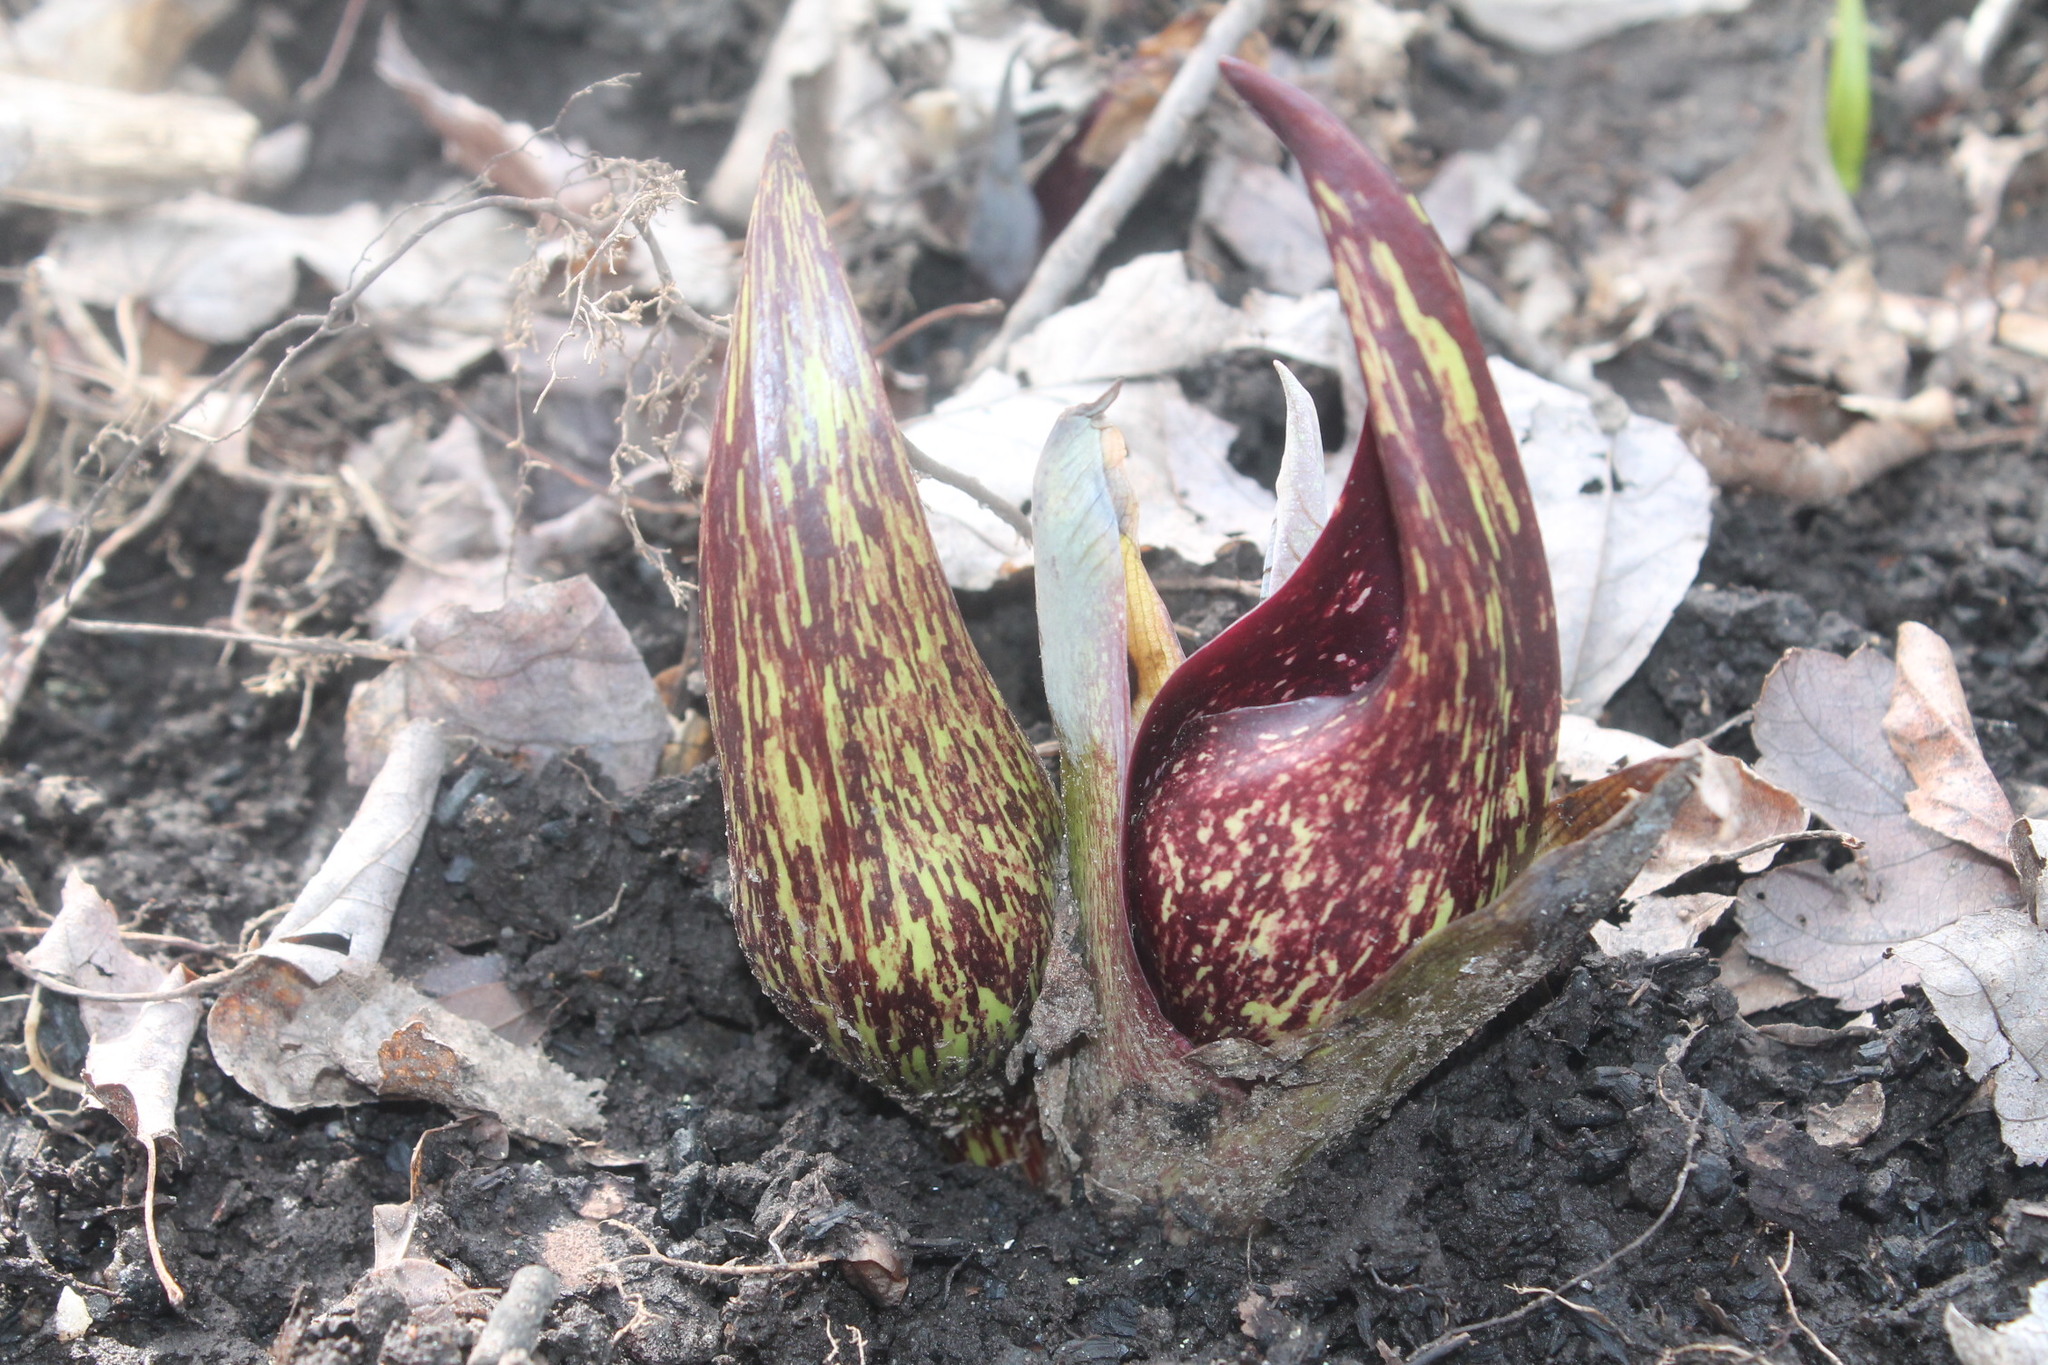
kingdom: Plantae
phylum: Tracheophyta
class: Liliopsida
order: Alismatales
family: Araceae
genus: Symplocarpus
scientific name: Symplocarpus foetidus
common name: Eastern skunk cabbage
